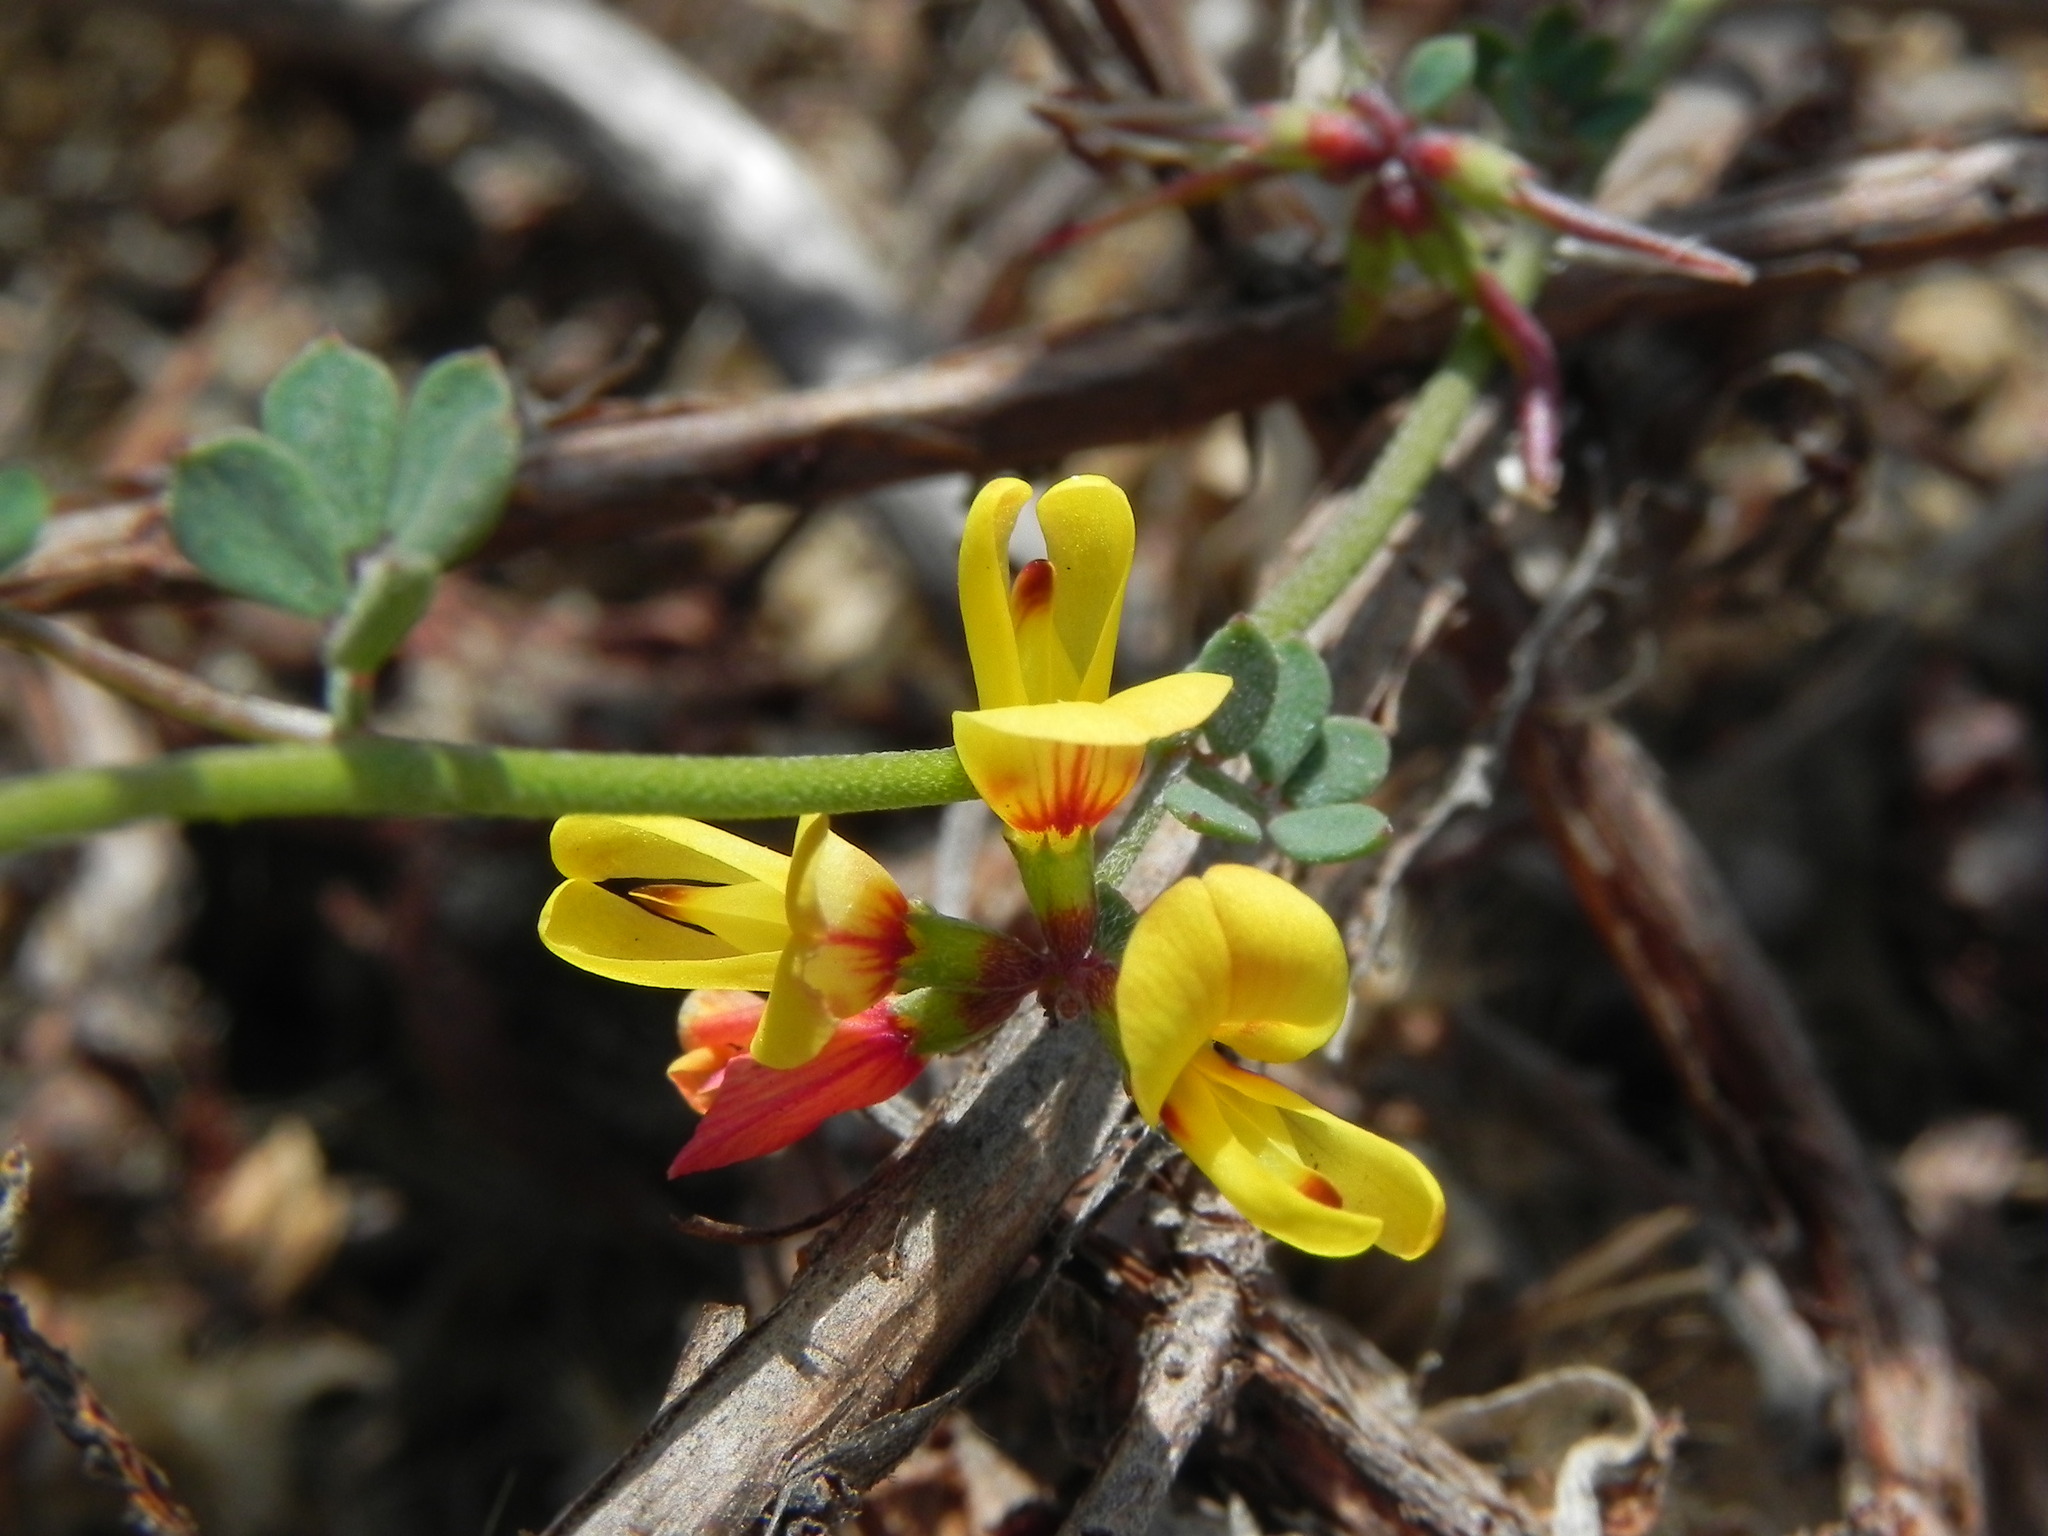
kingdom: Plantae
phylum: Tracheophyta
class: Magnoliopsida
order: Fabales
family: Fabaceae
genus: Acmispon
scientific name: Acmispon prostratus
